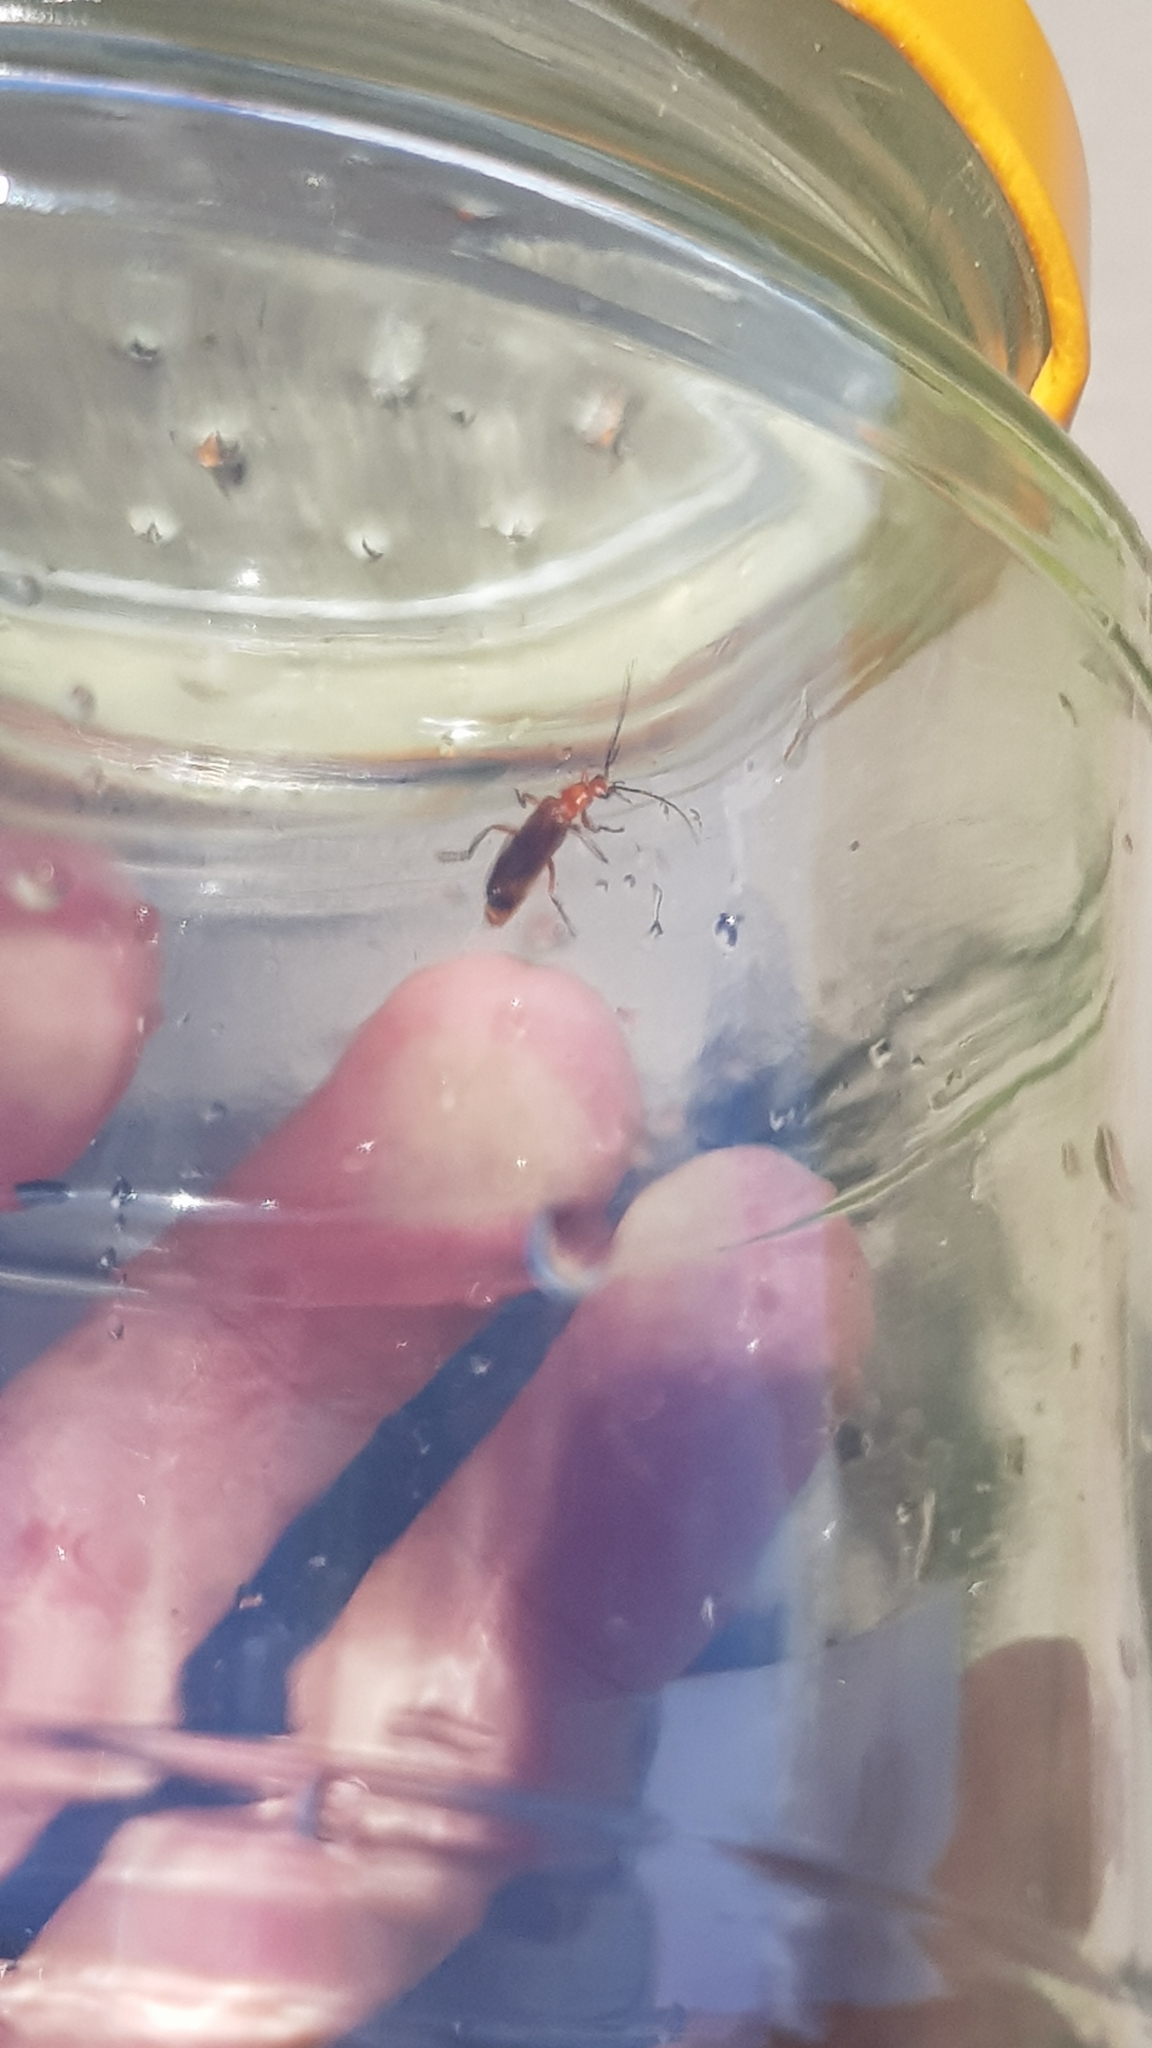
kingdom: Animalia
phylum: Arthropoda
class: Insecta
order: Coleoptera
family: Cantharidae
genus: Rhagonycha
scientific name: Rhagonycha fulva
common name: Common red soldier beetle
